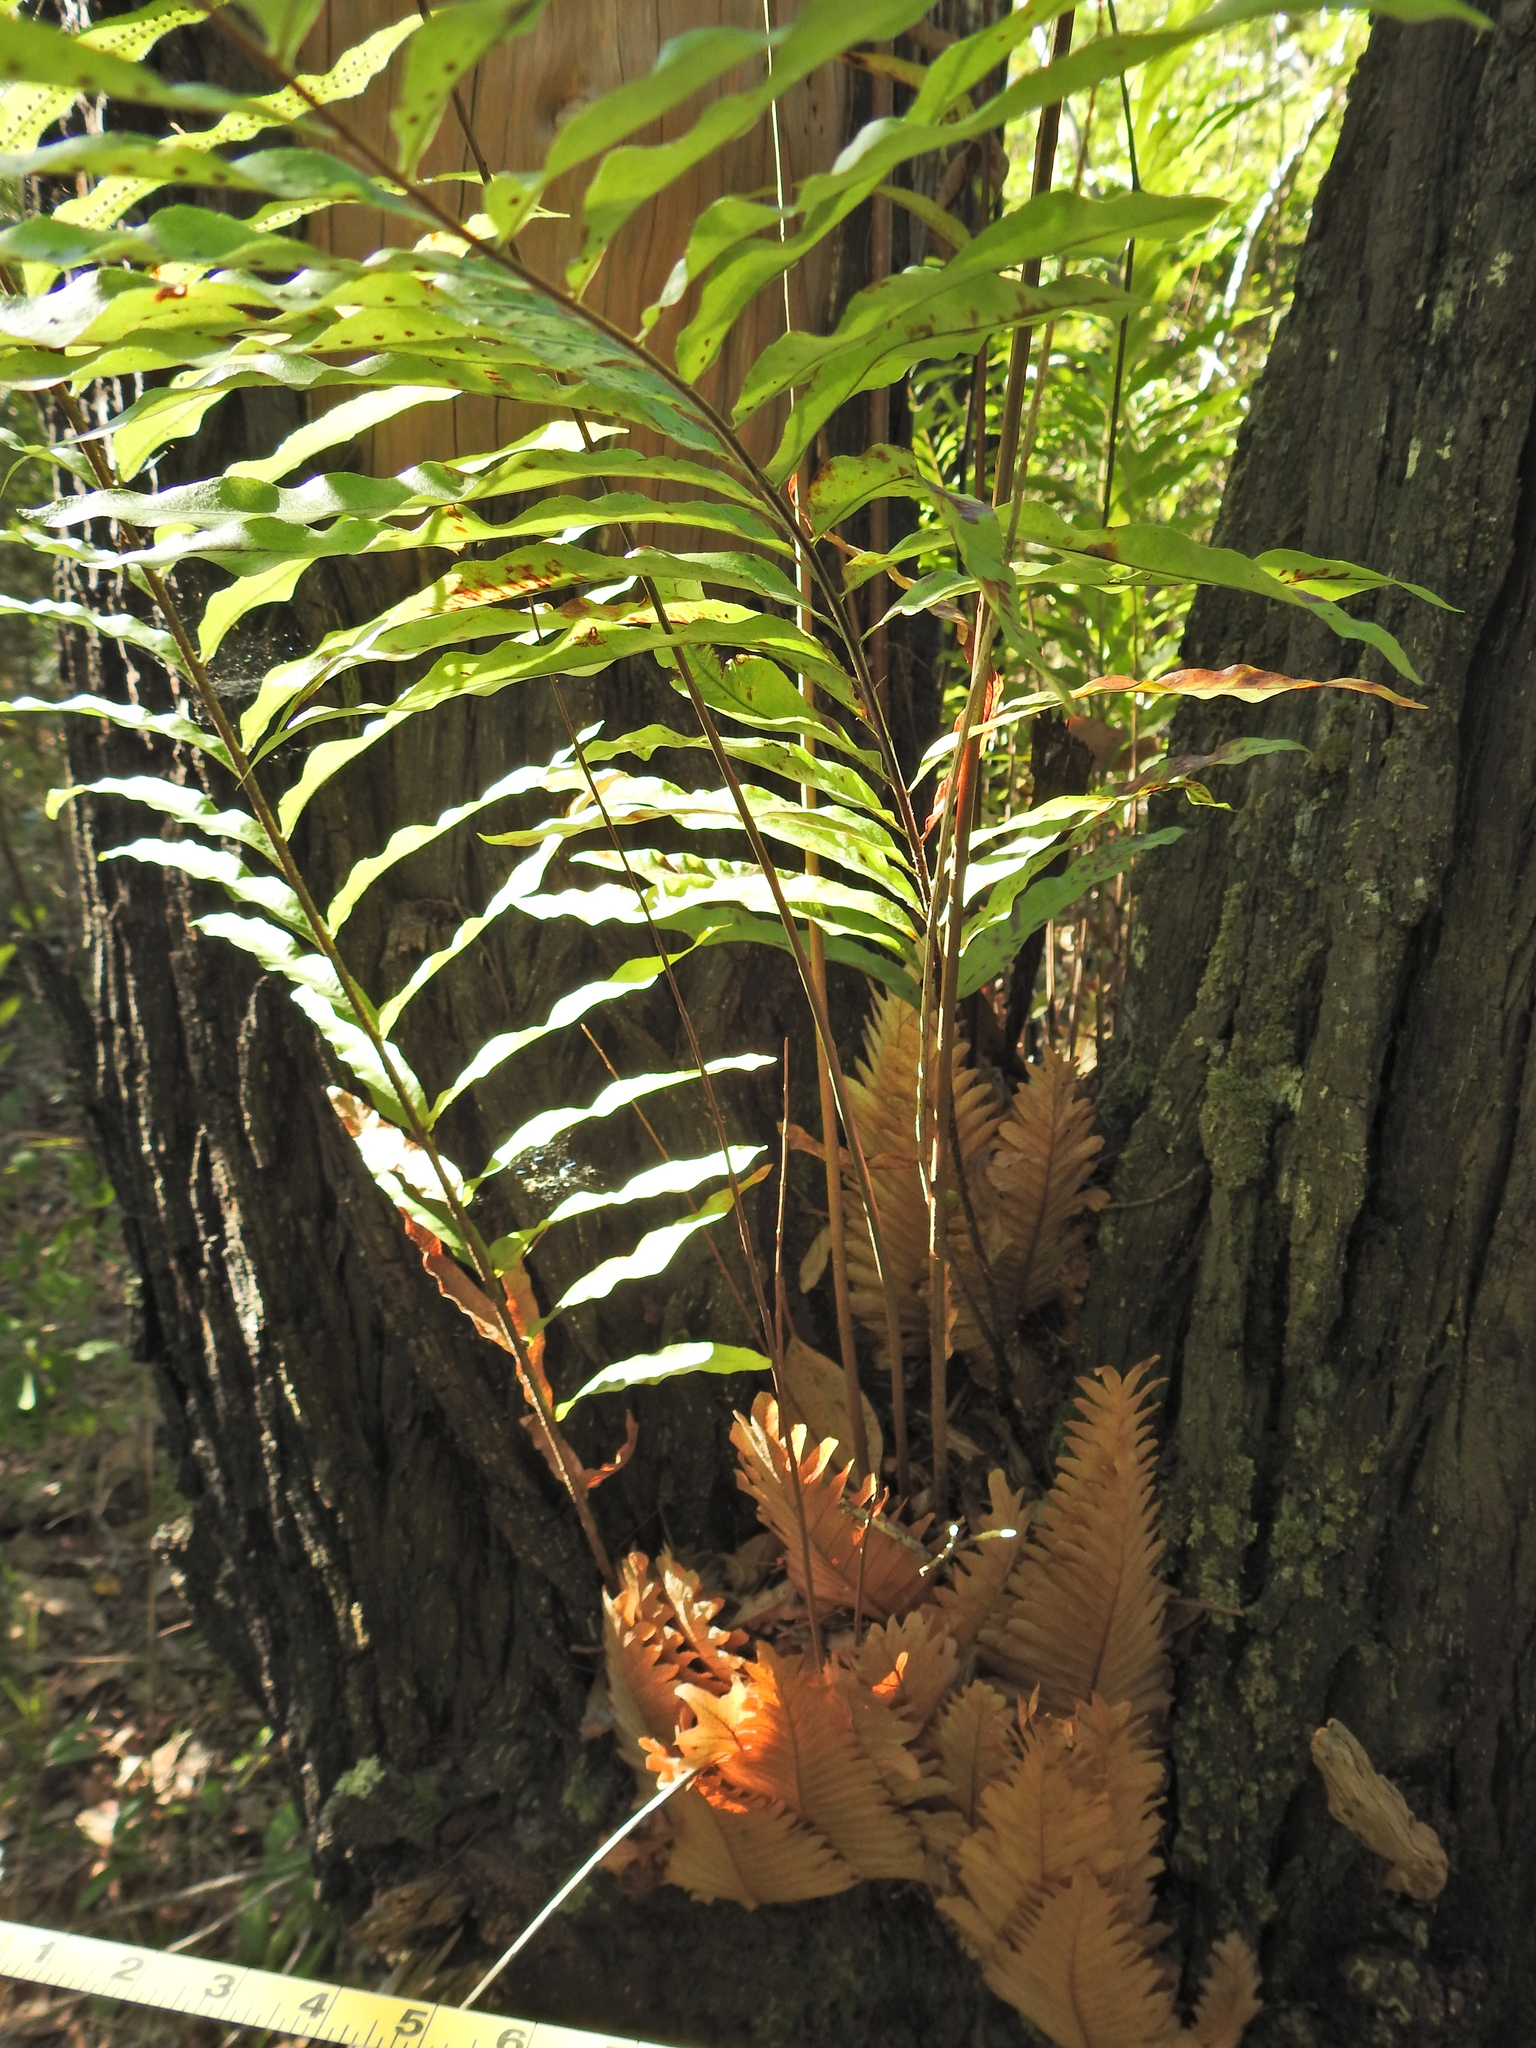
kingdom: Plantae
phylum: Tracheophyta
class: Polypodiopsida
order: Polypodiales
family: Polypodiaceae
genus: Drynaria
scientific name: Drynaria rigidula
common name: Basket fern
